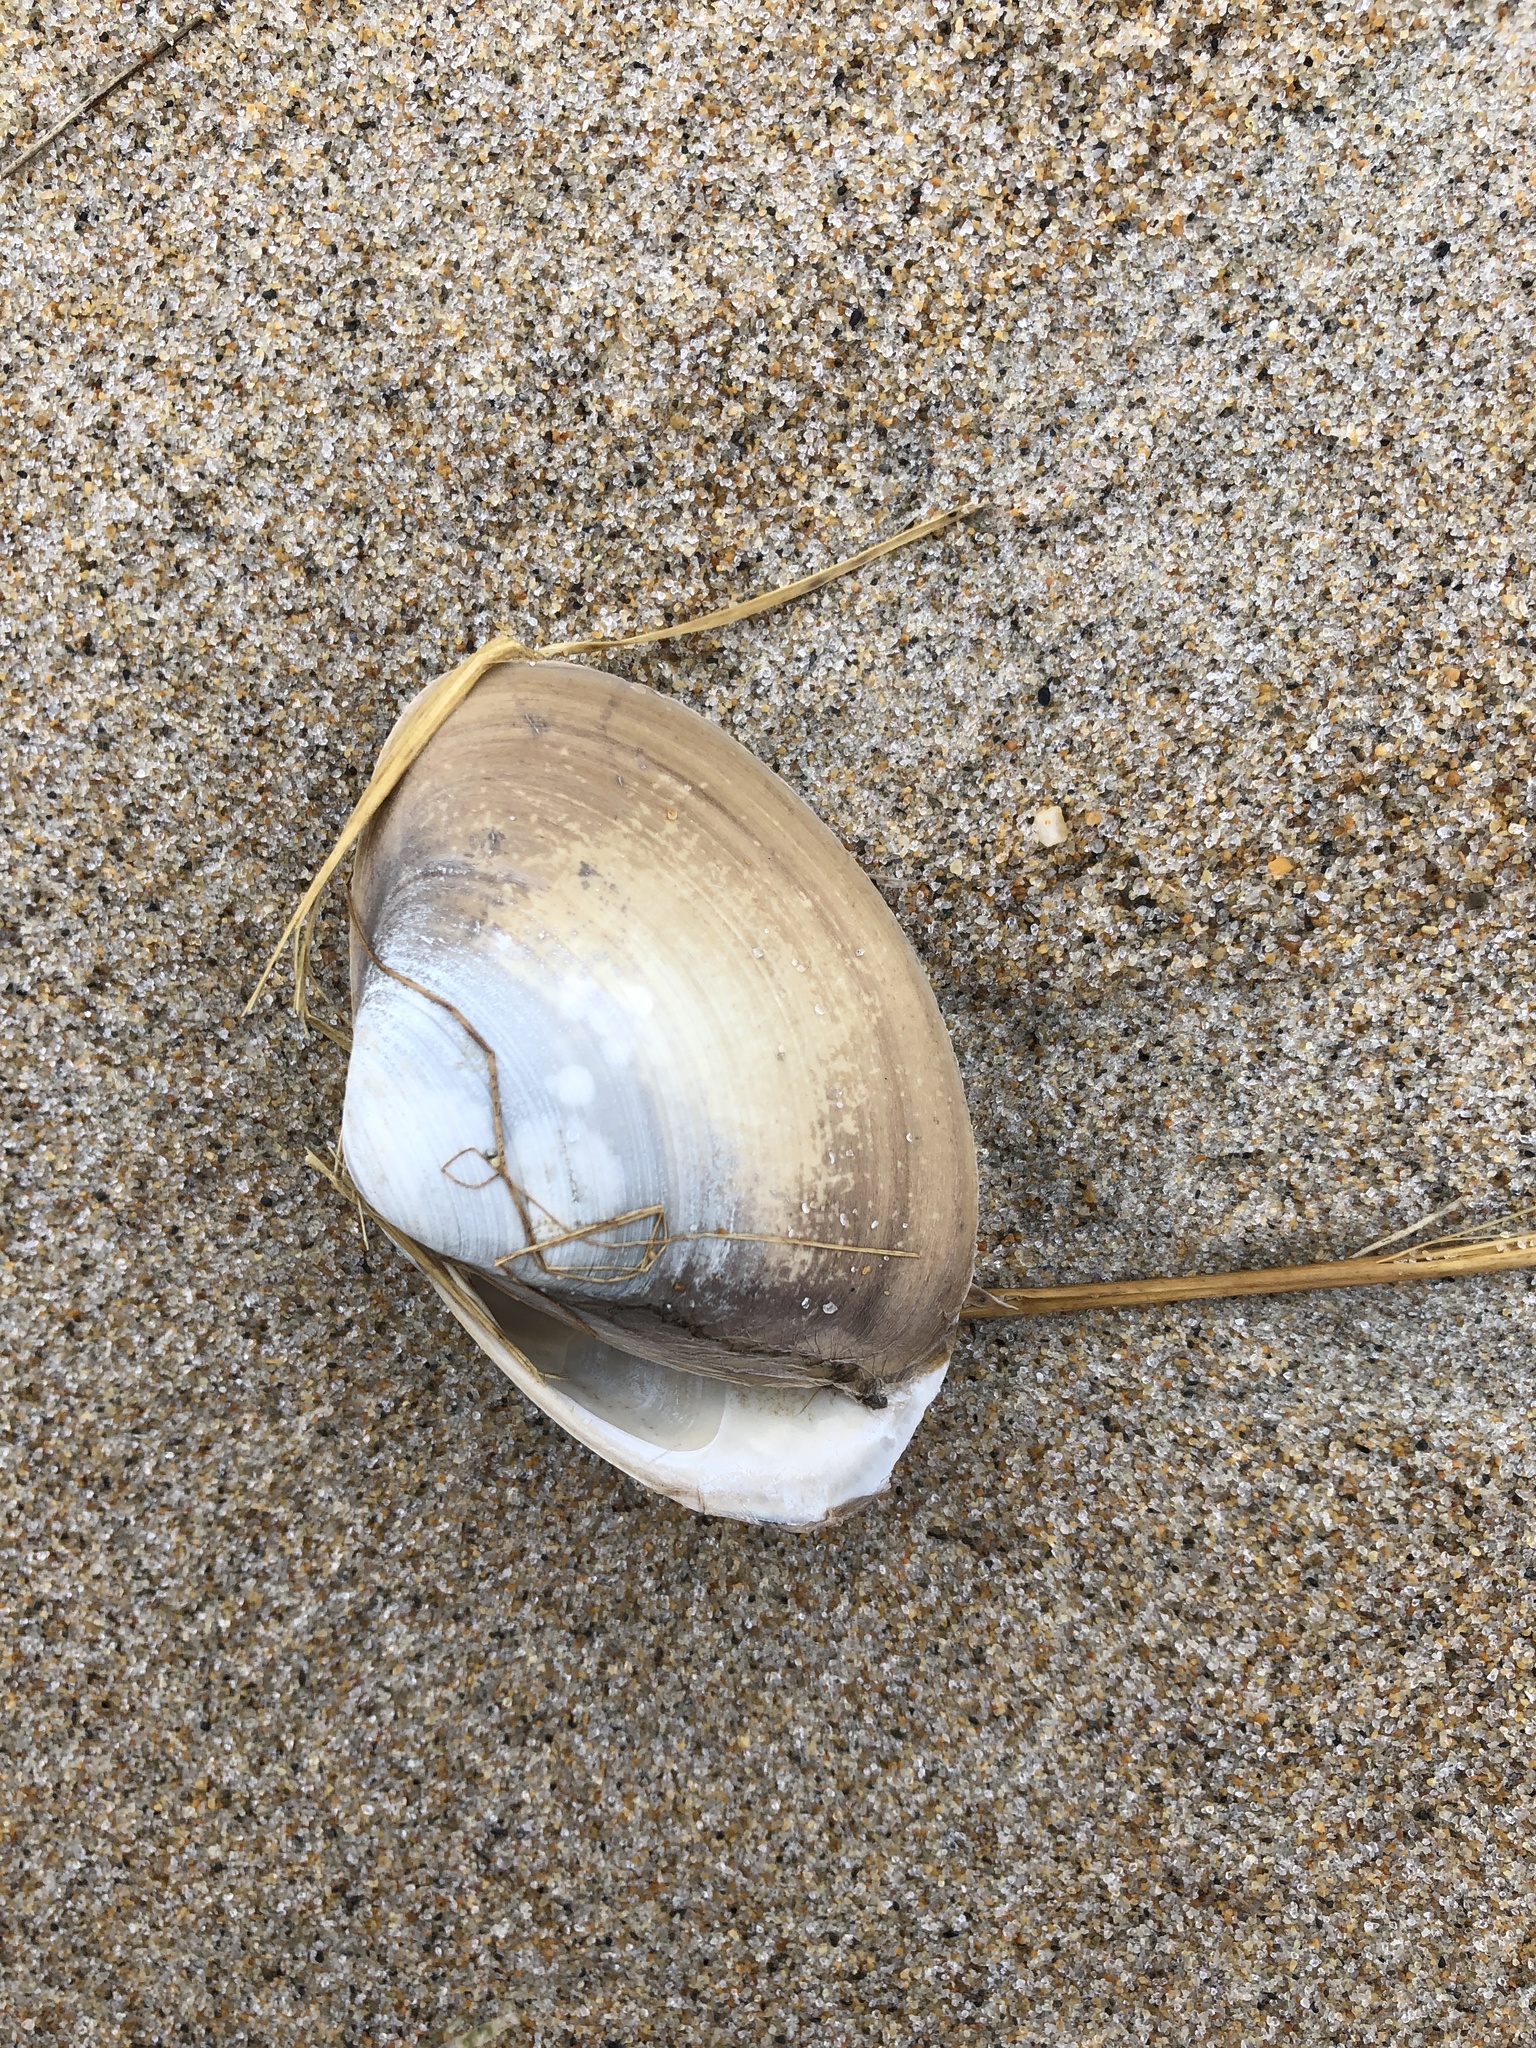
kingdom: Animalia
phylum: Mollusca
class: Bivalvia
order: Venerida
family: Mactridae
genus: Spisula
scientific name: Spisula solidissima
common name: Atlantic surf clam
